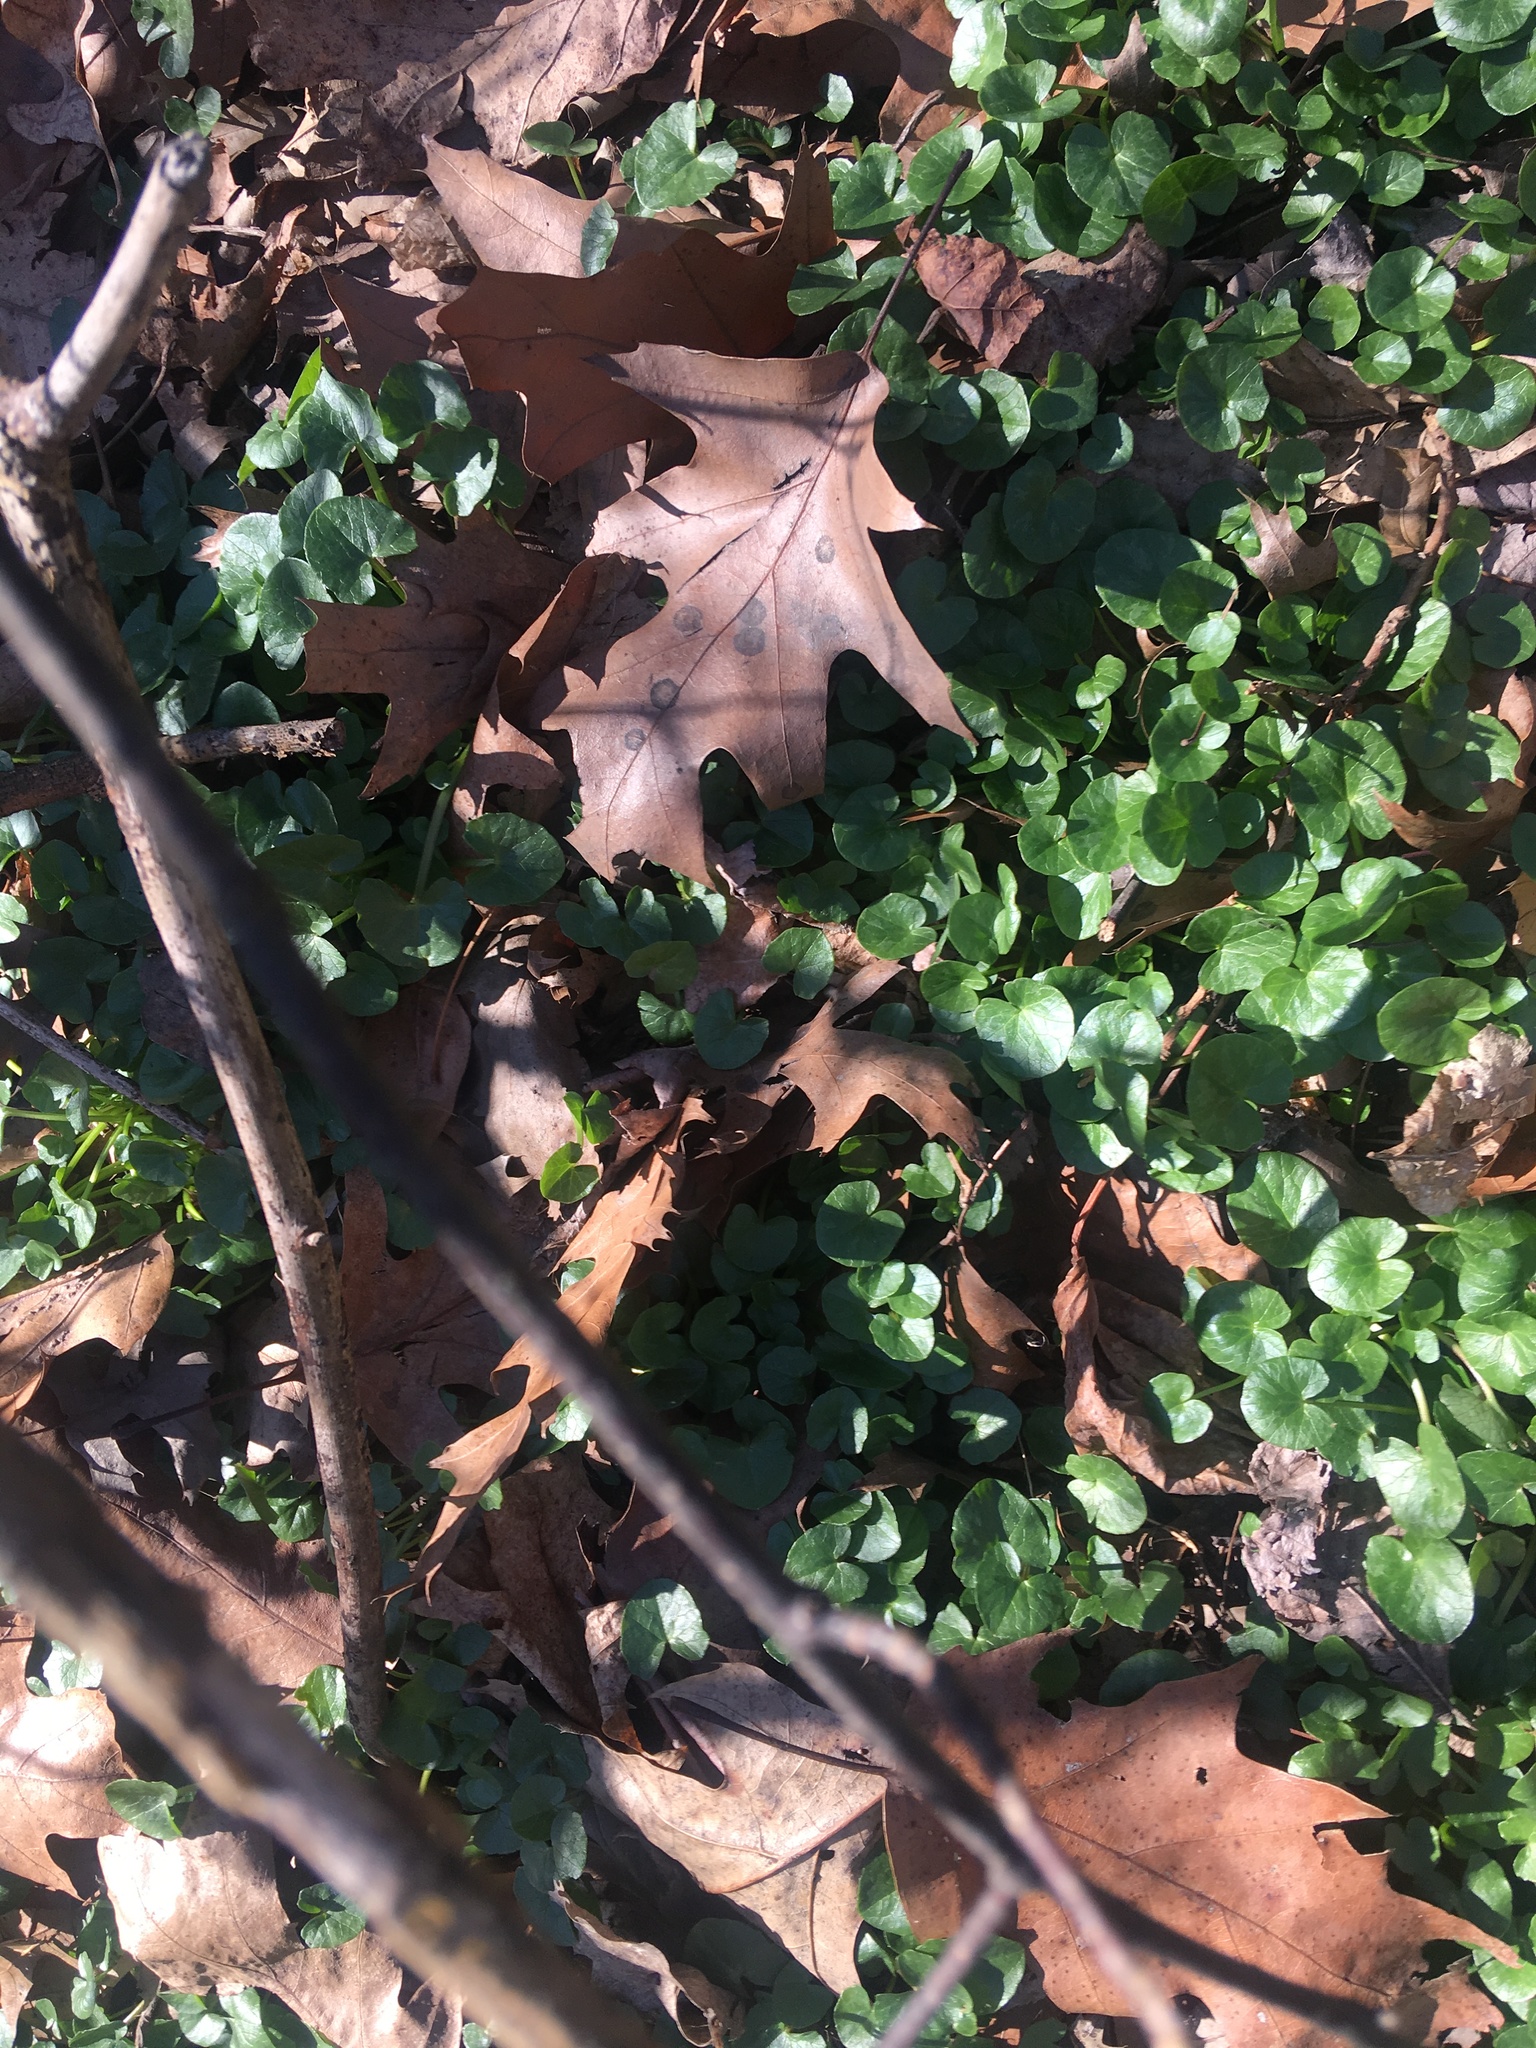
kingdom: Plantae
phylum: Tracheophyta
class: Magnoliopsida
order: Ranunculales
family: Ranunculaceae
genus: Ficaria
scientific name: Ficaria verna
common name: Lesser celandine
